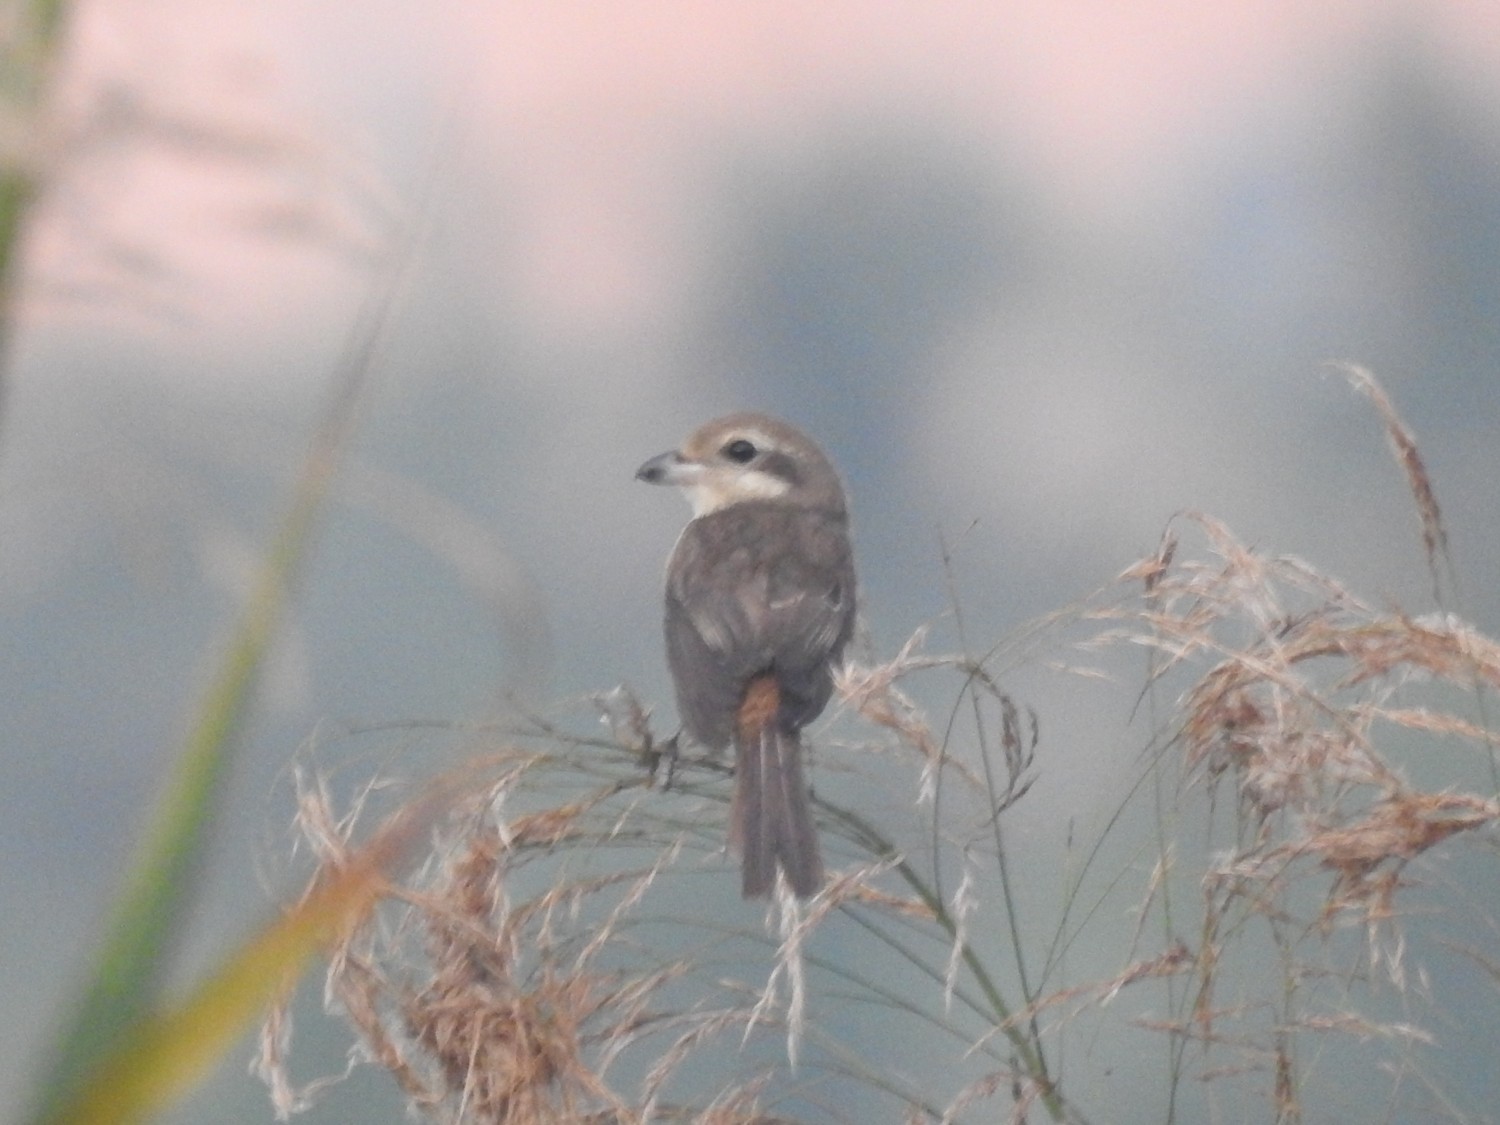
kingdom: Animalia
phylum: Chordata
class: Aves
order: Passeriformes
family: Laniidae
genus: Lanius
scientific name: Lanius cristatus
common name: Brown shrike
